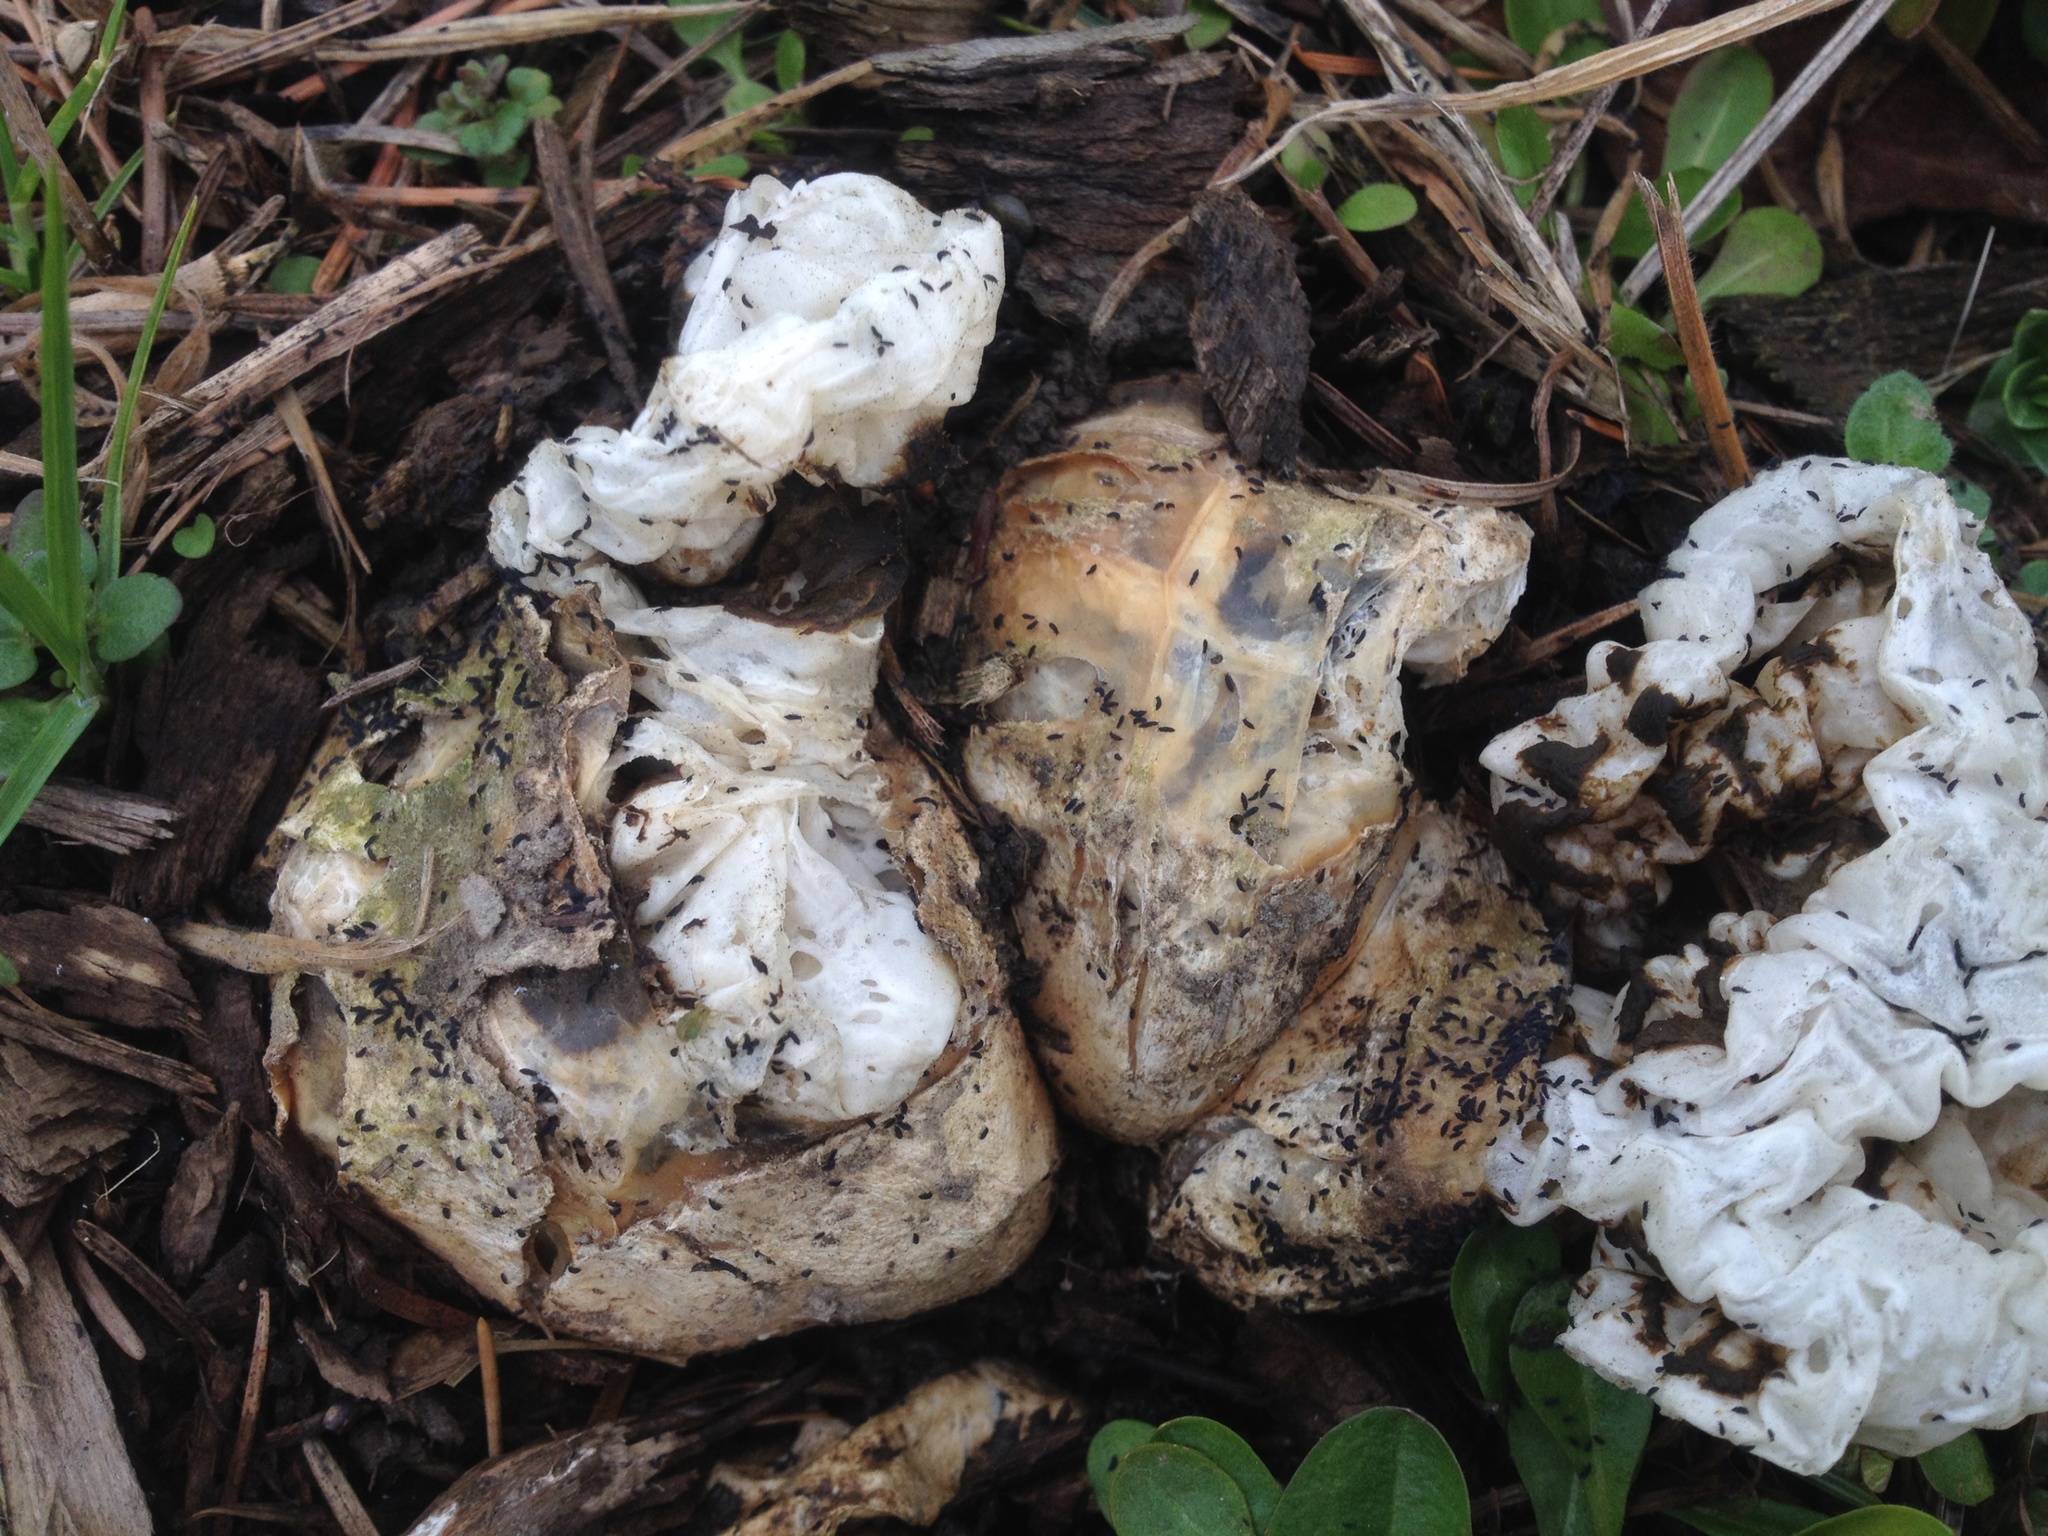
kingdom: Fungi
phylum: Basidiomycota
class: Agaricomycetes
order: Phallales
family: Phallaceae
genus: Ileodictyon
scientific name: Ileodictyon cibarium
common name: Basket fungus
